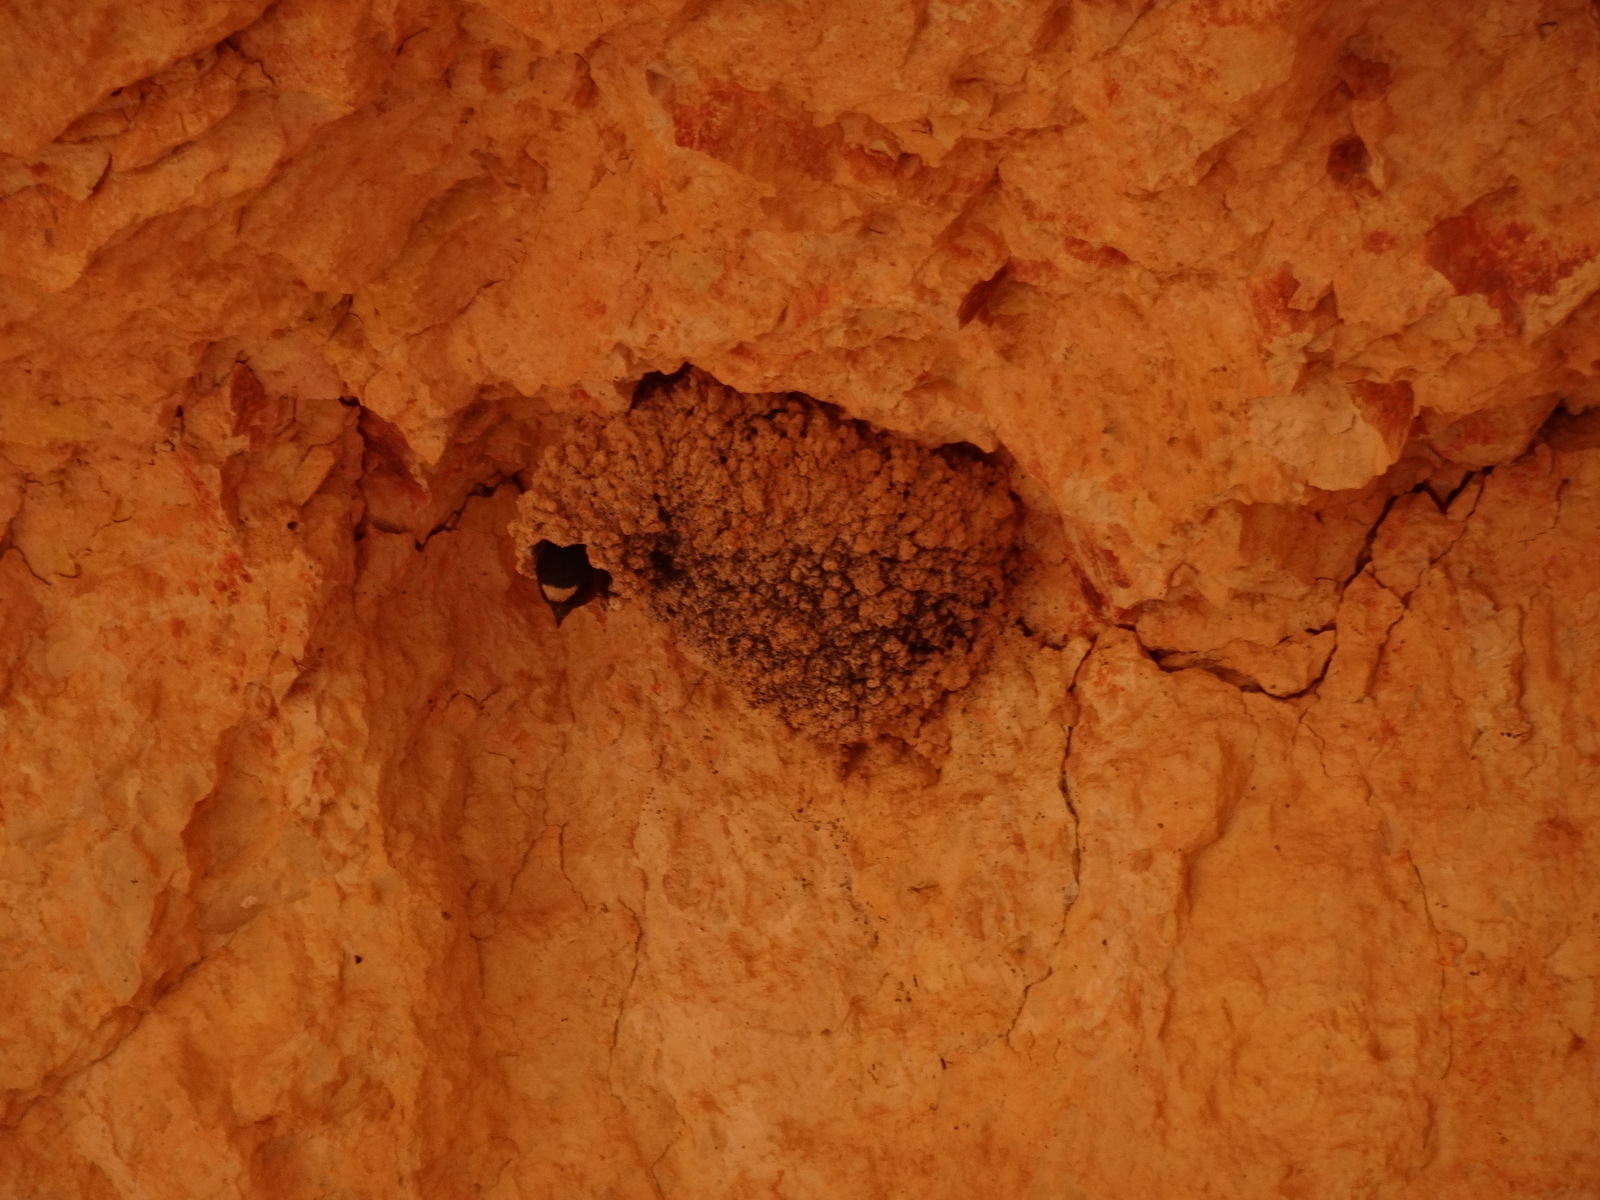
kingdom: Animalia
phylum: Chordata
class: Aves
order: Passeriformes
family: Hirundinidae
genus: Petrochelidon
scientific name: Petrochelidon pyrrhonota
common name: American cliff swallow
